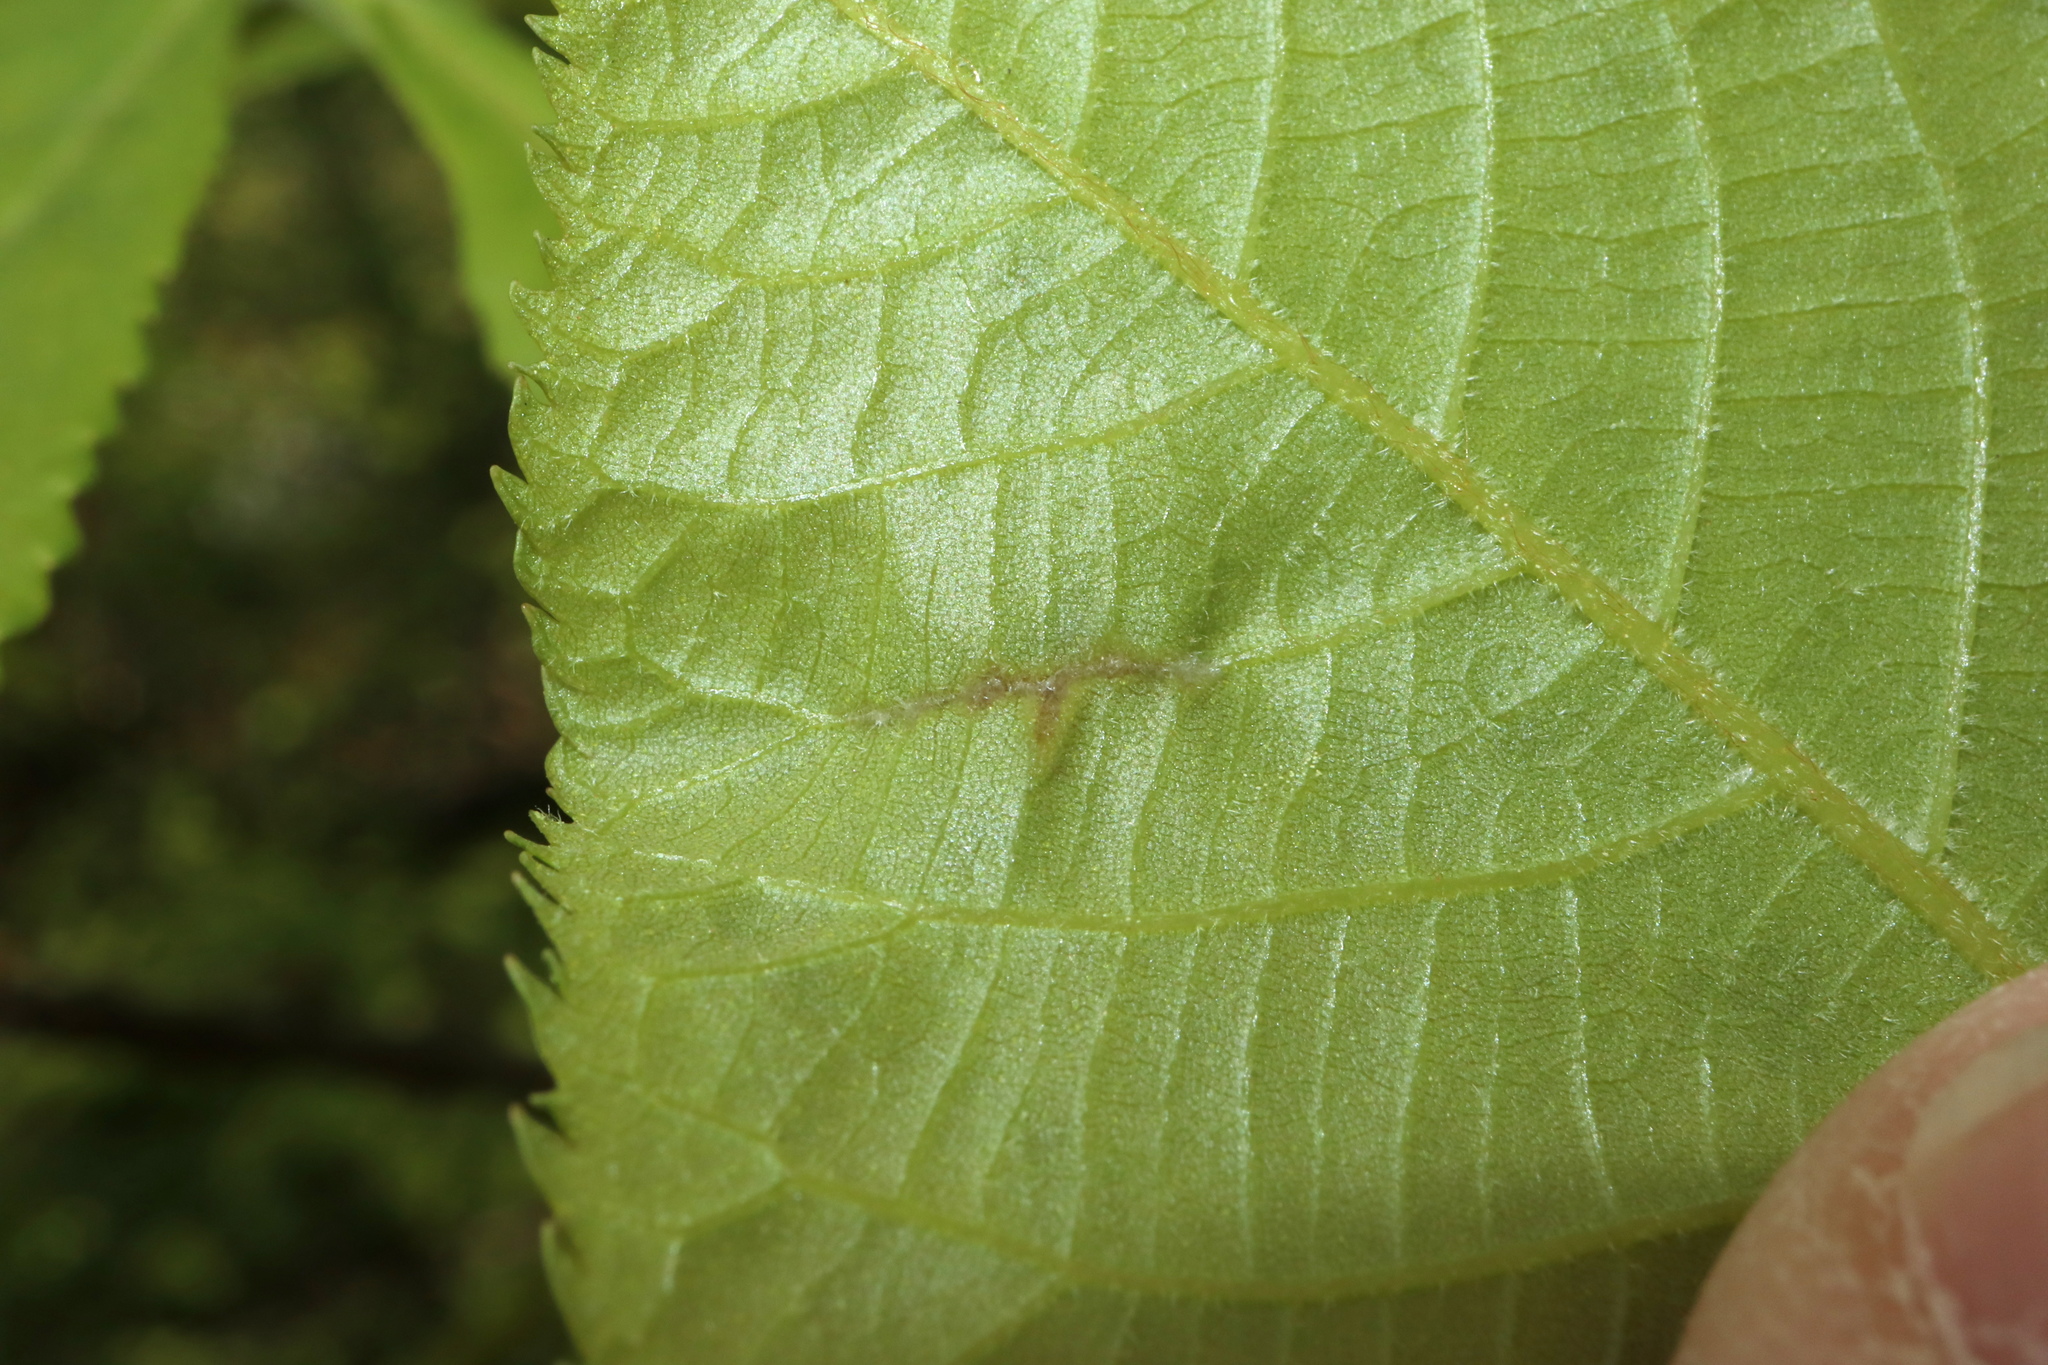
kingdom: Animalia
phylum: Arthropoda
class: Insecta
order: Hemiptera
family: Phylloxeridae
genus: Phylloxera
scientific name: Phylloxera caryaevenae
